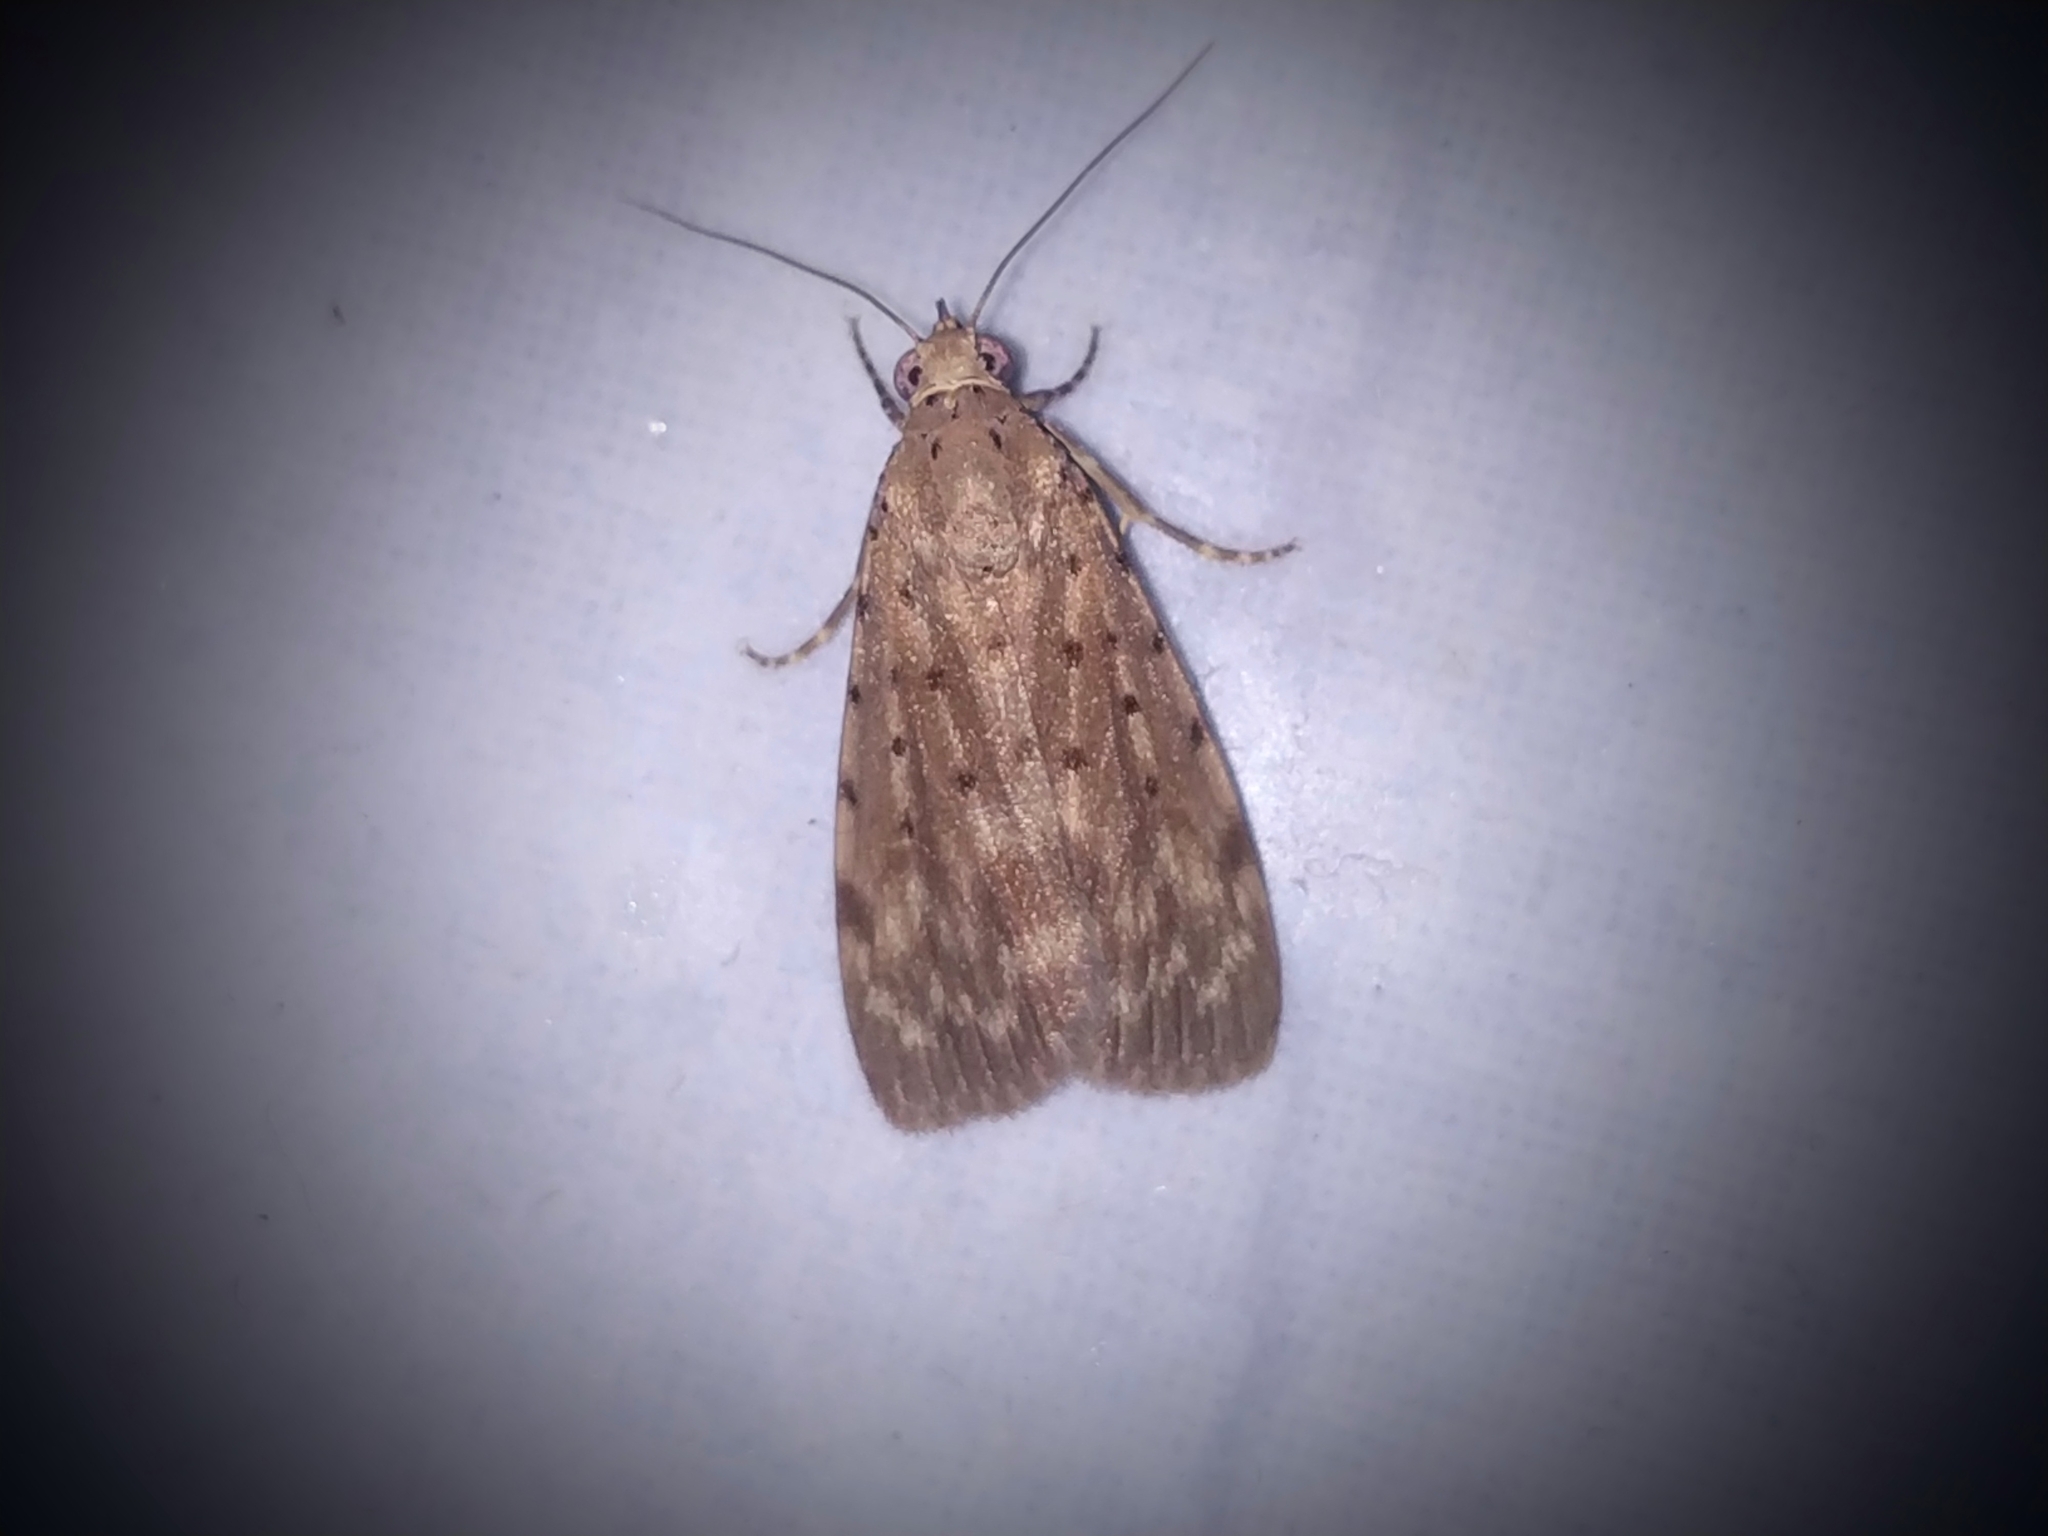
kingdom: Animalia
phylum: Arthropoda
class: Insecta
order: Lepidoptera
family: Erebidae
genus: Digama
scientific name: Digama Sommeria hearseyana
